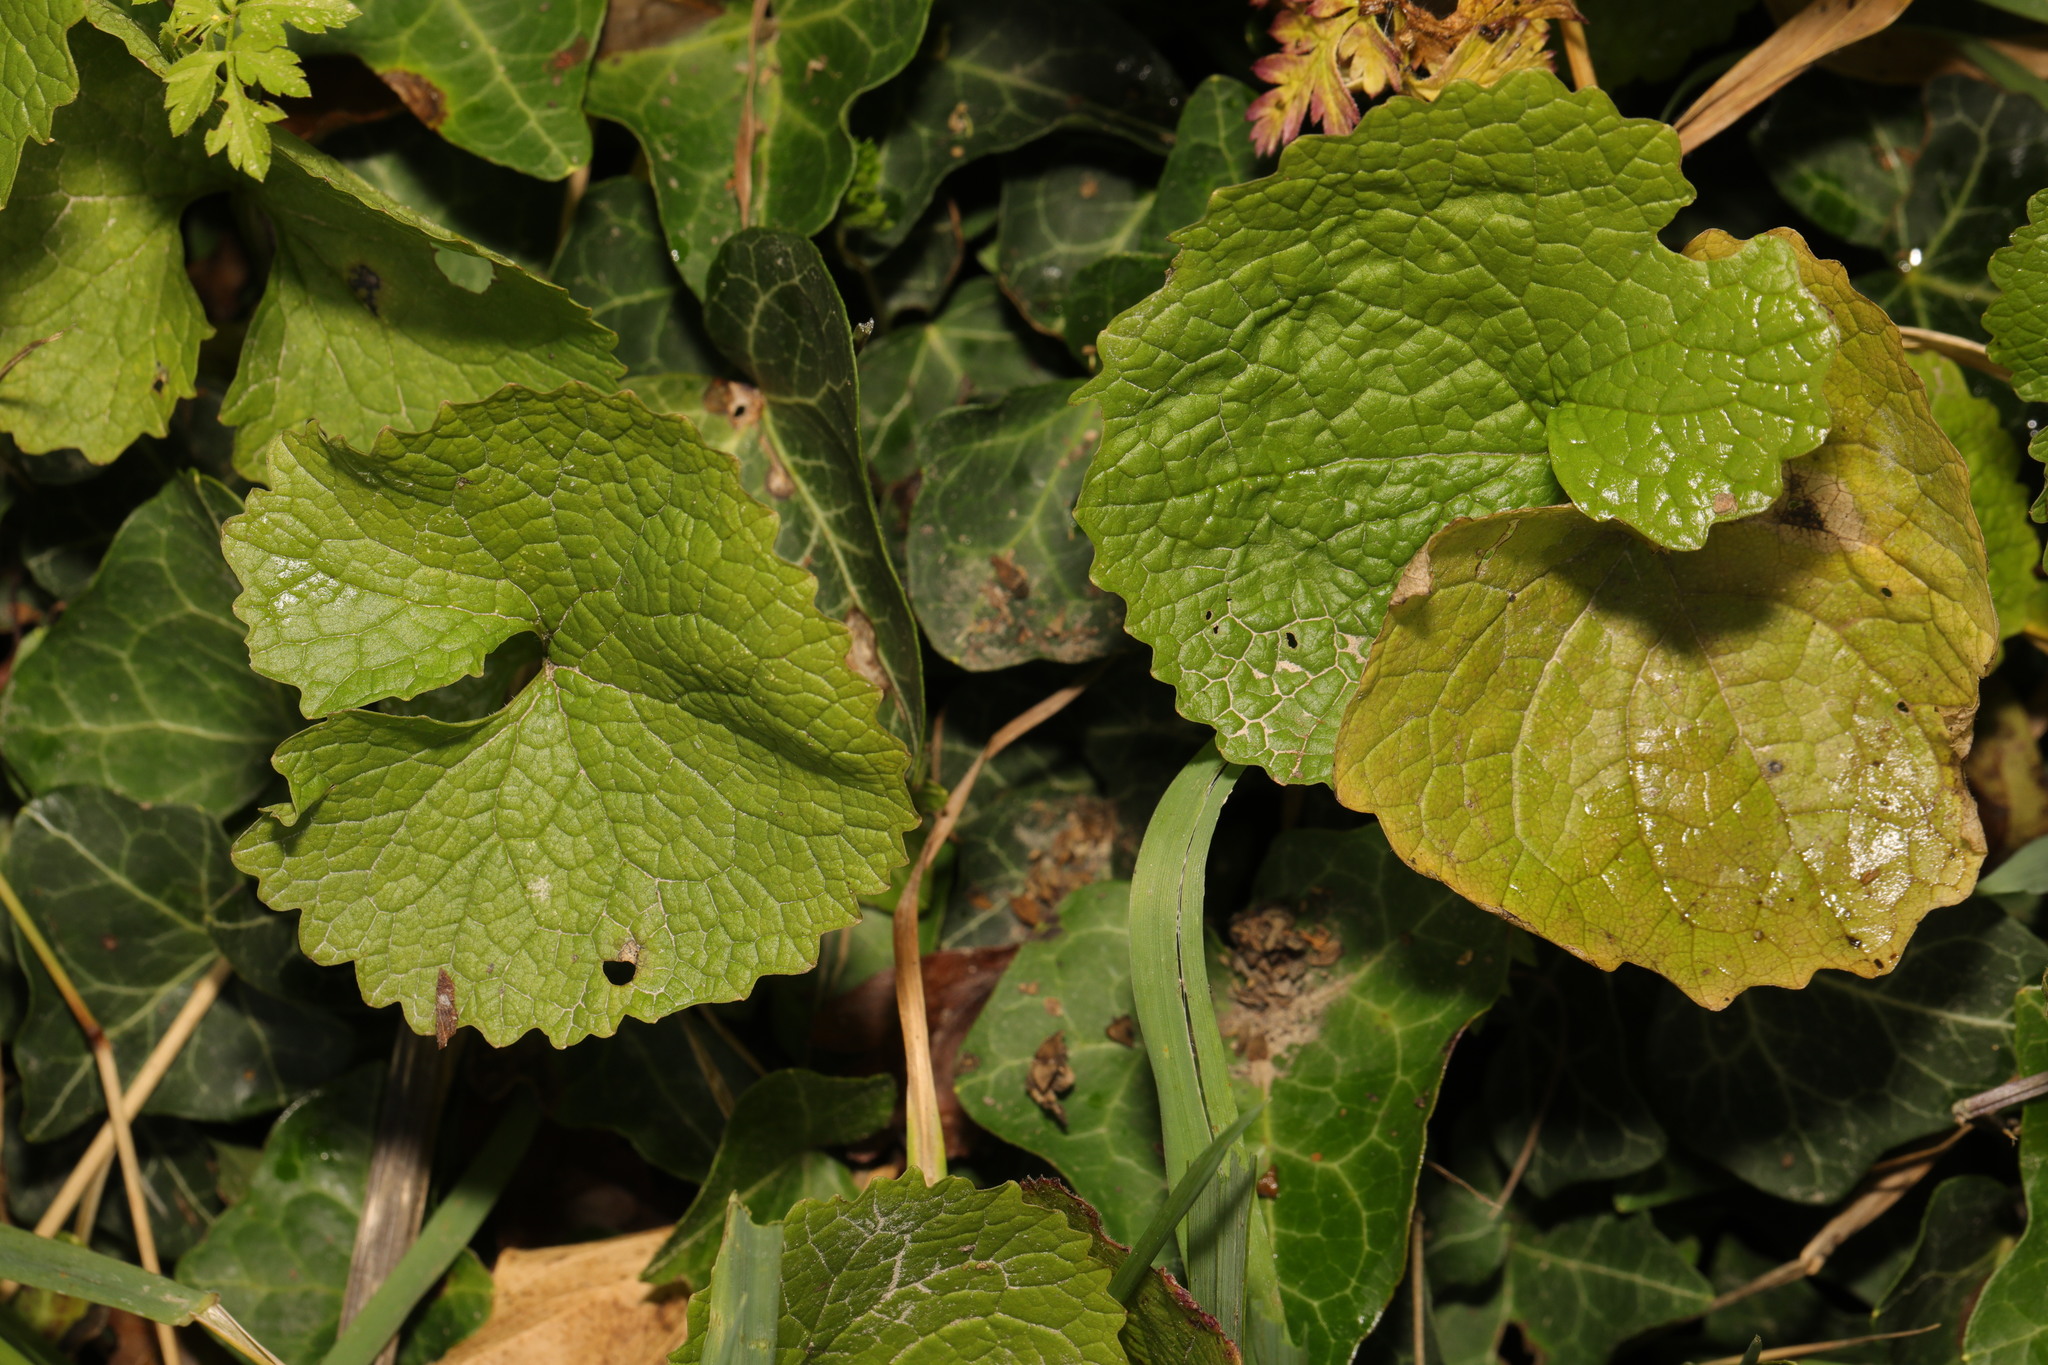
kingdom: Plantae
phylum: Tracheophyta
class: Magnoliopsida
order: Brassicales
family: Brassicaceae
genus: Alliaria
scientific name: Alliaria petiolata
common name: Garlic mustard
